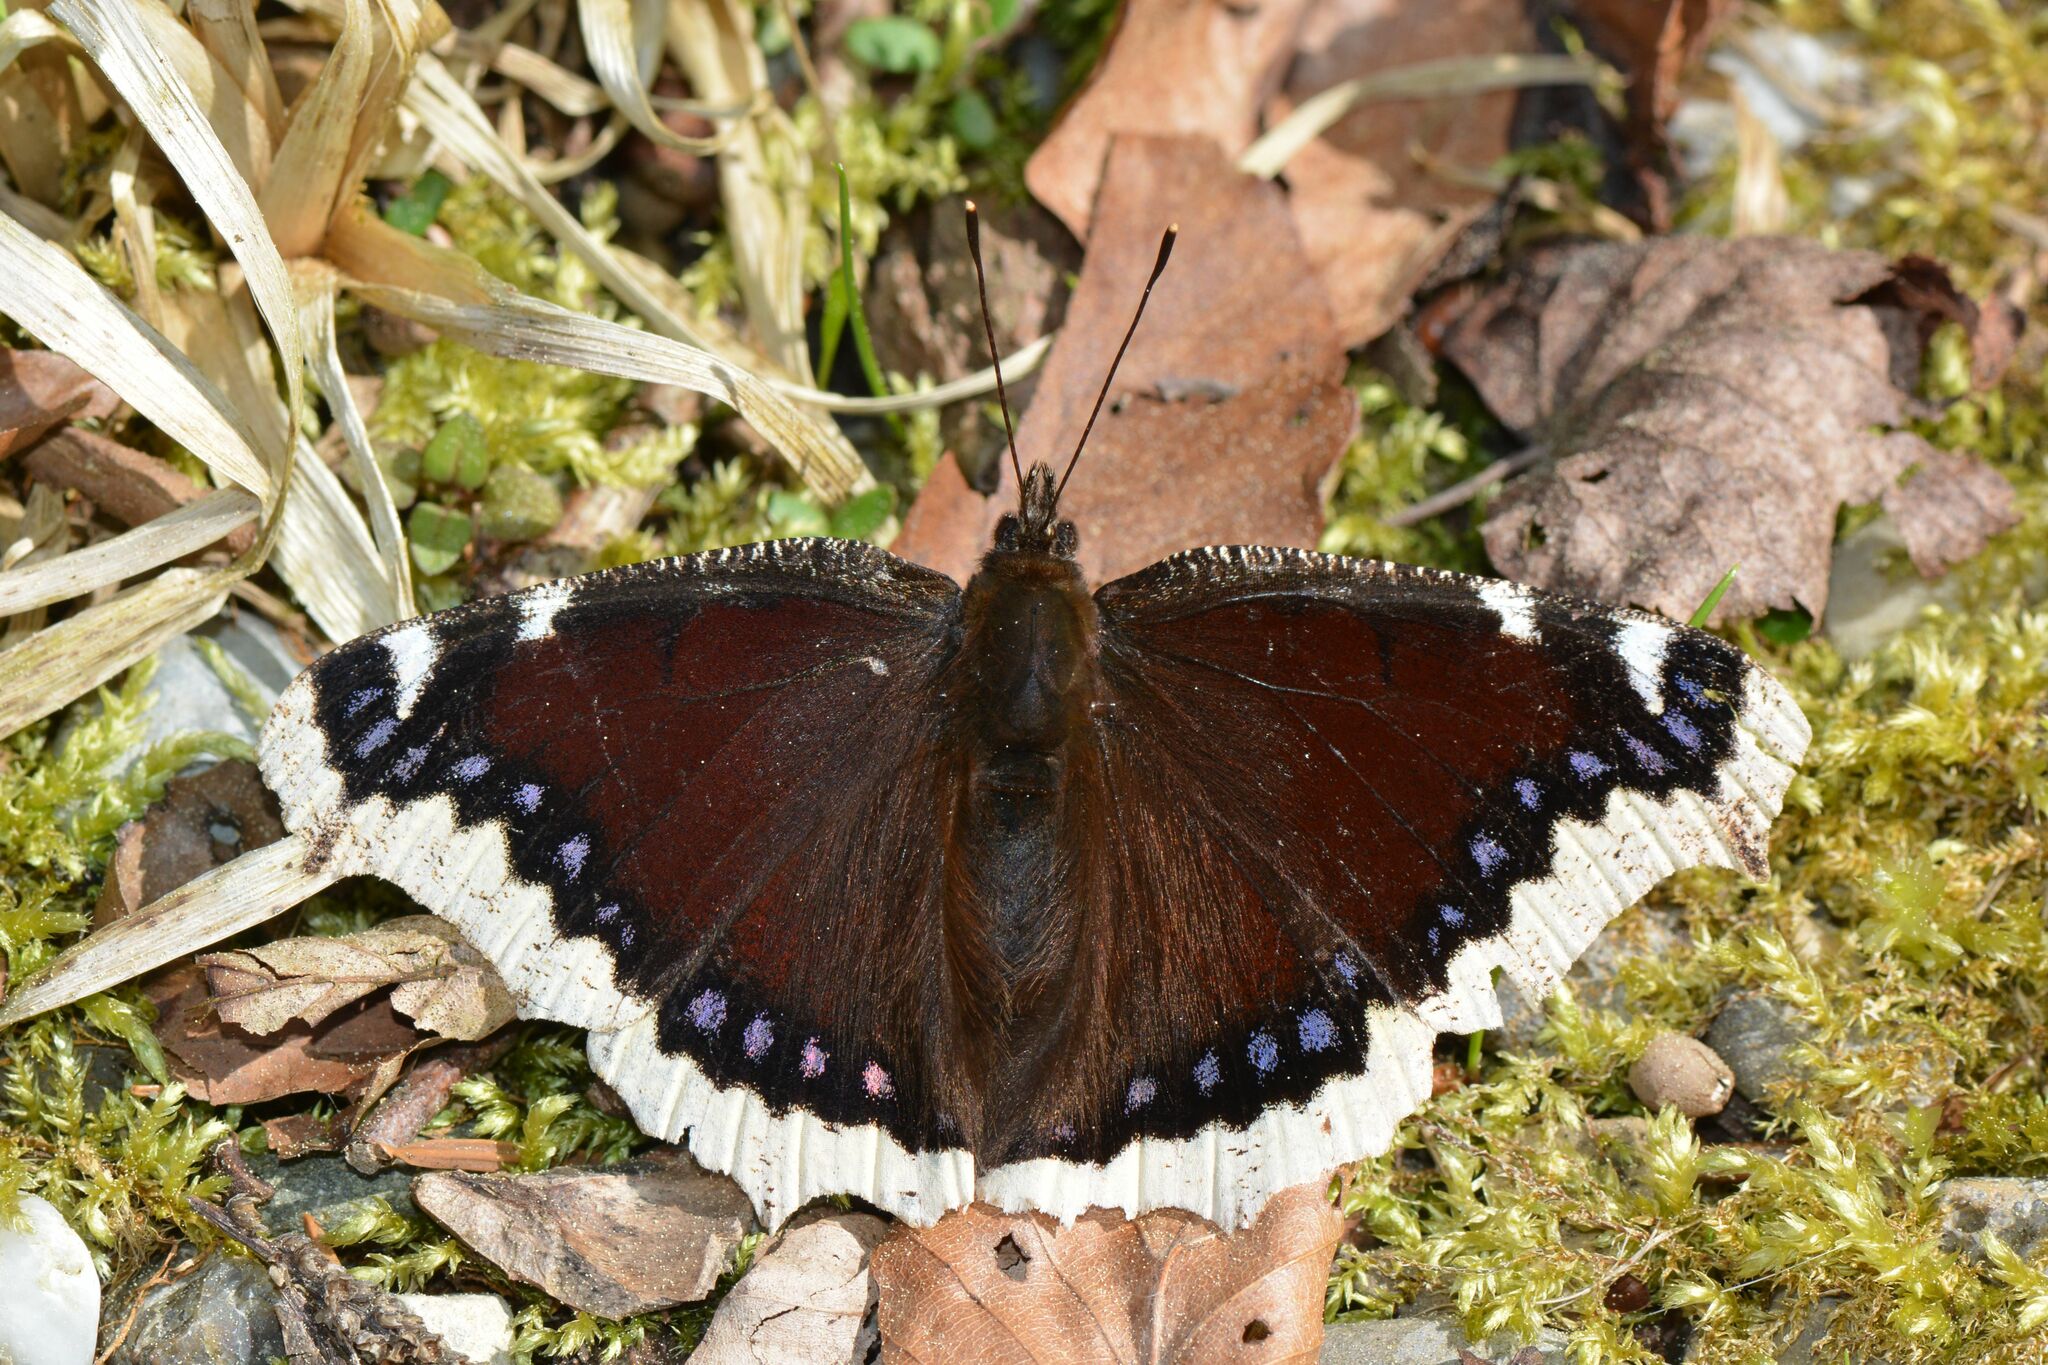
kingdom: Animalia
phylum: Arthropoda
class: Insecta
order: Lepidoptera
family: Nymphalidae
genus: Nymphalis
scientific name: Nymphalis antiopa
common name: Camberwell beauty
